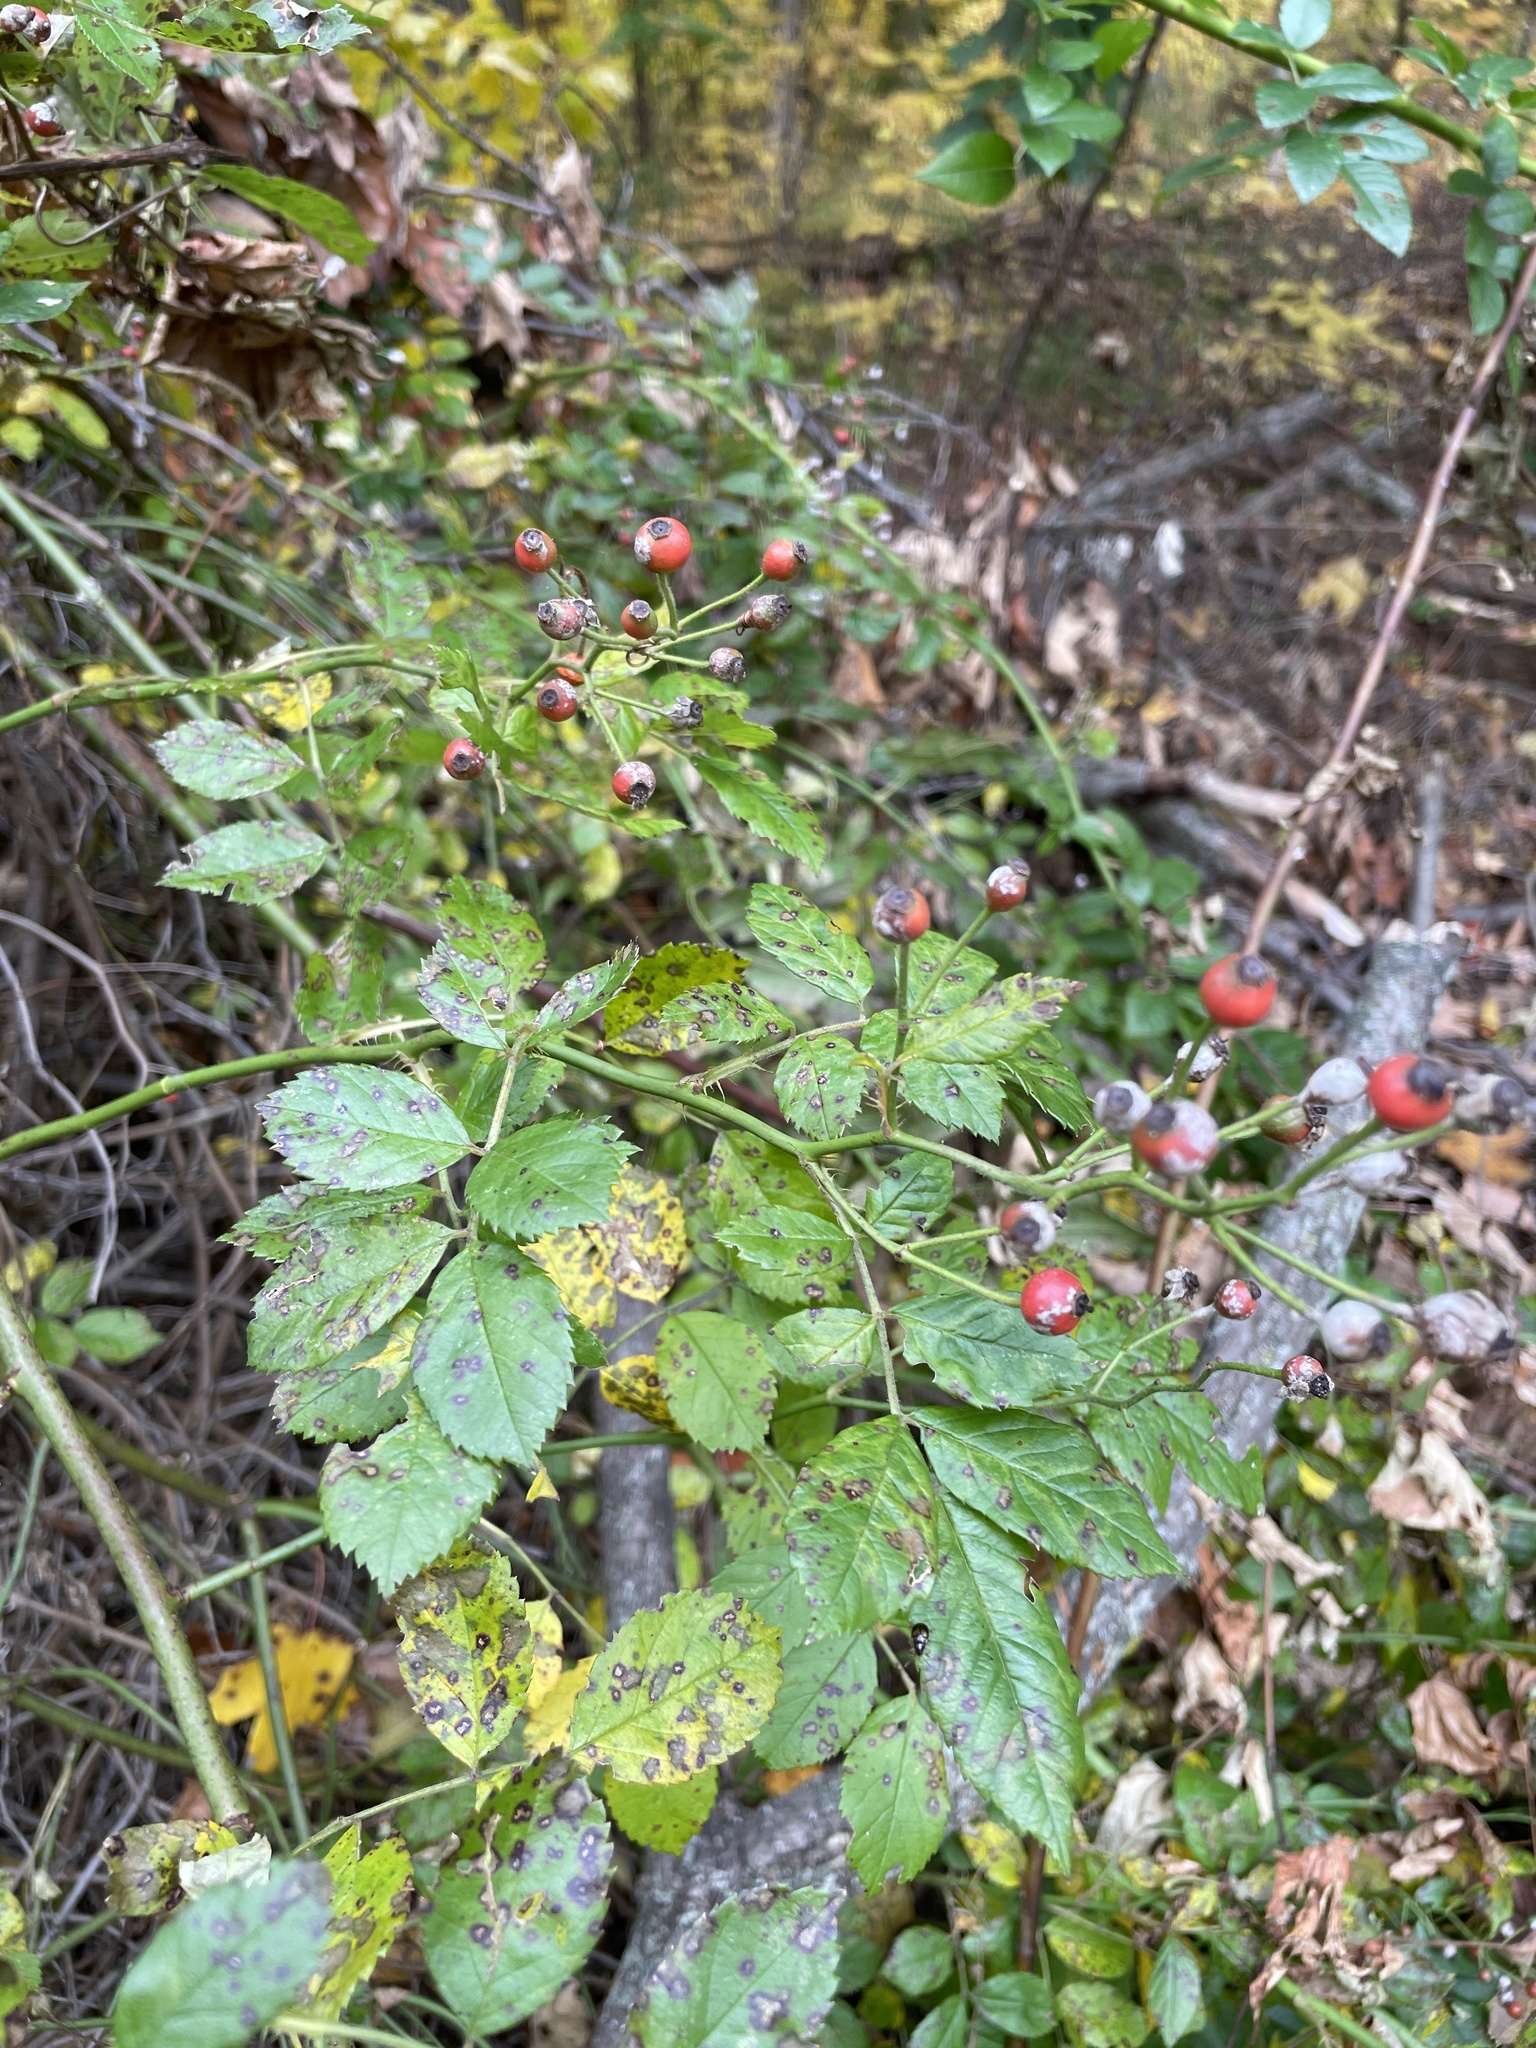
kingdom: Plantae
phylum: Tracheophyta
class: Magnoliopsida
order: Rosales
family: Rosaceae
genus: Rosa
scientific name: Rosa multiflora
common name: Multiflora rose
